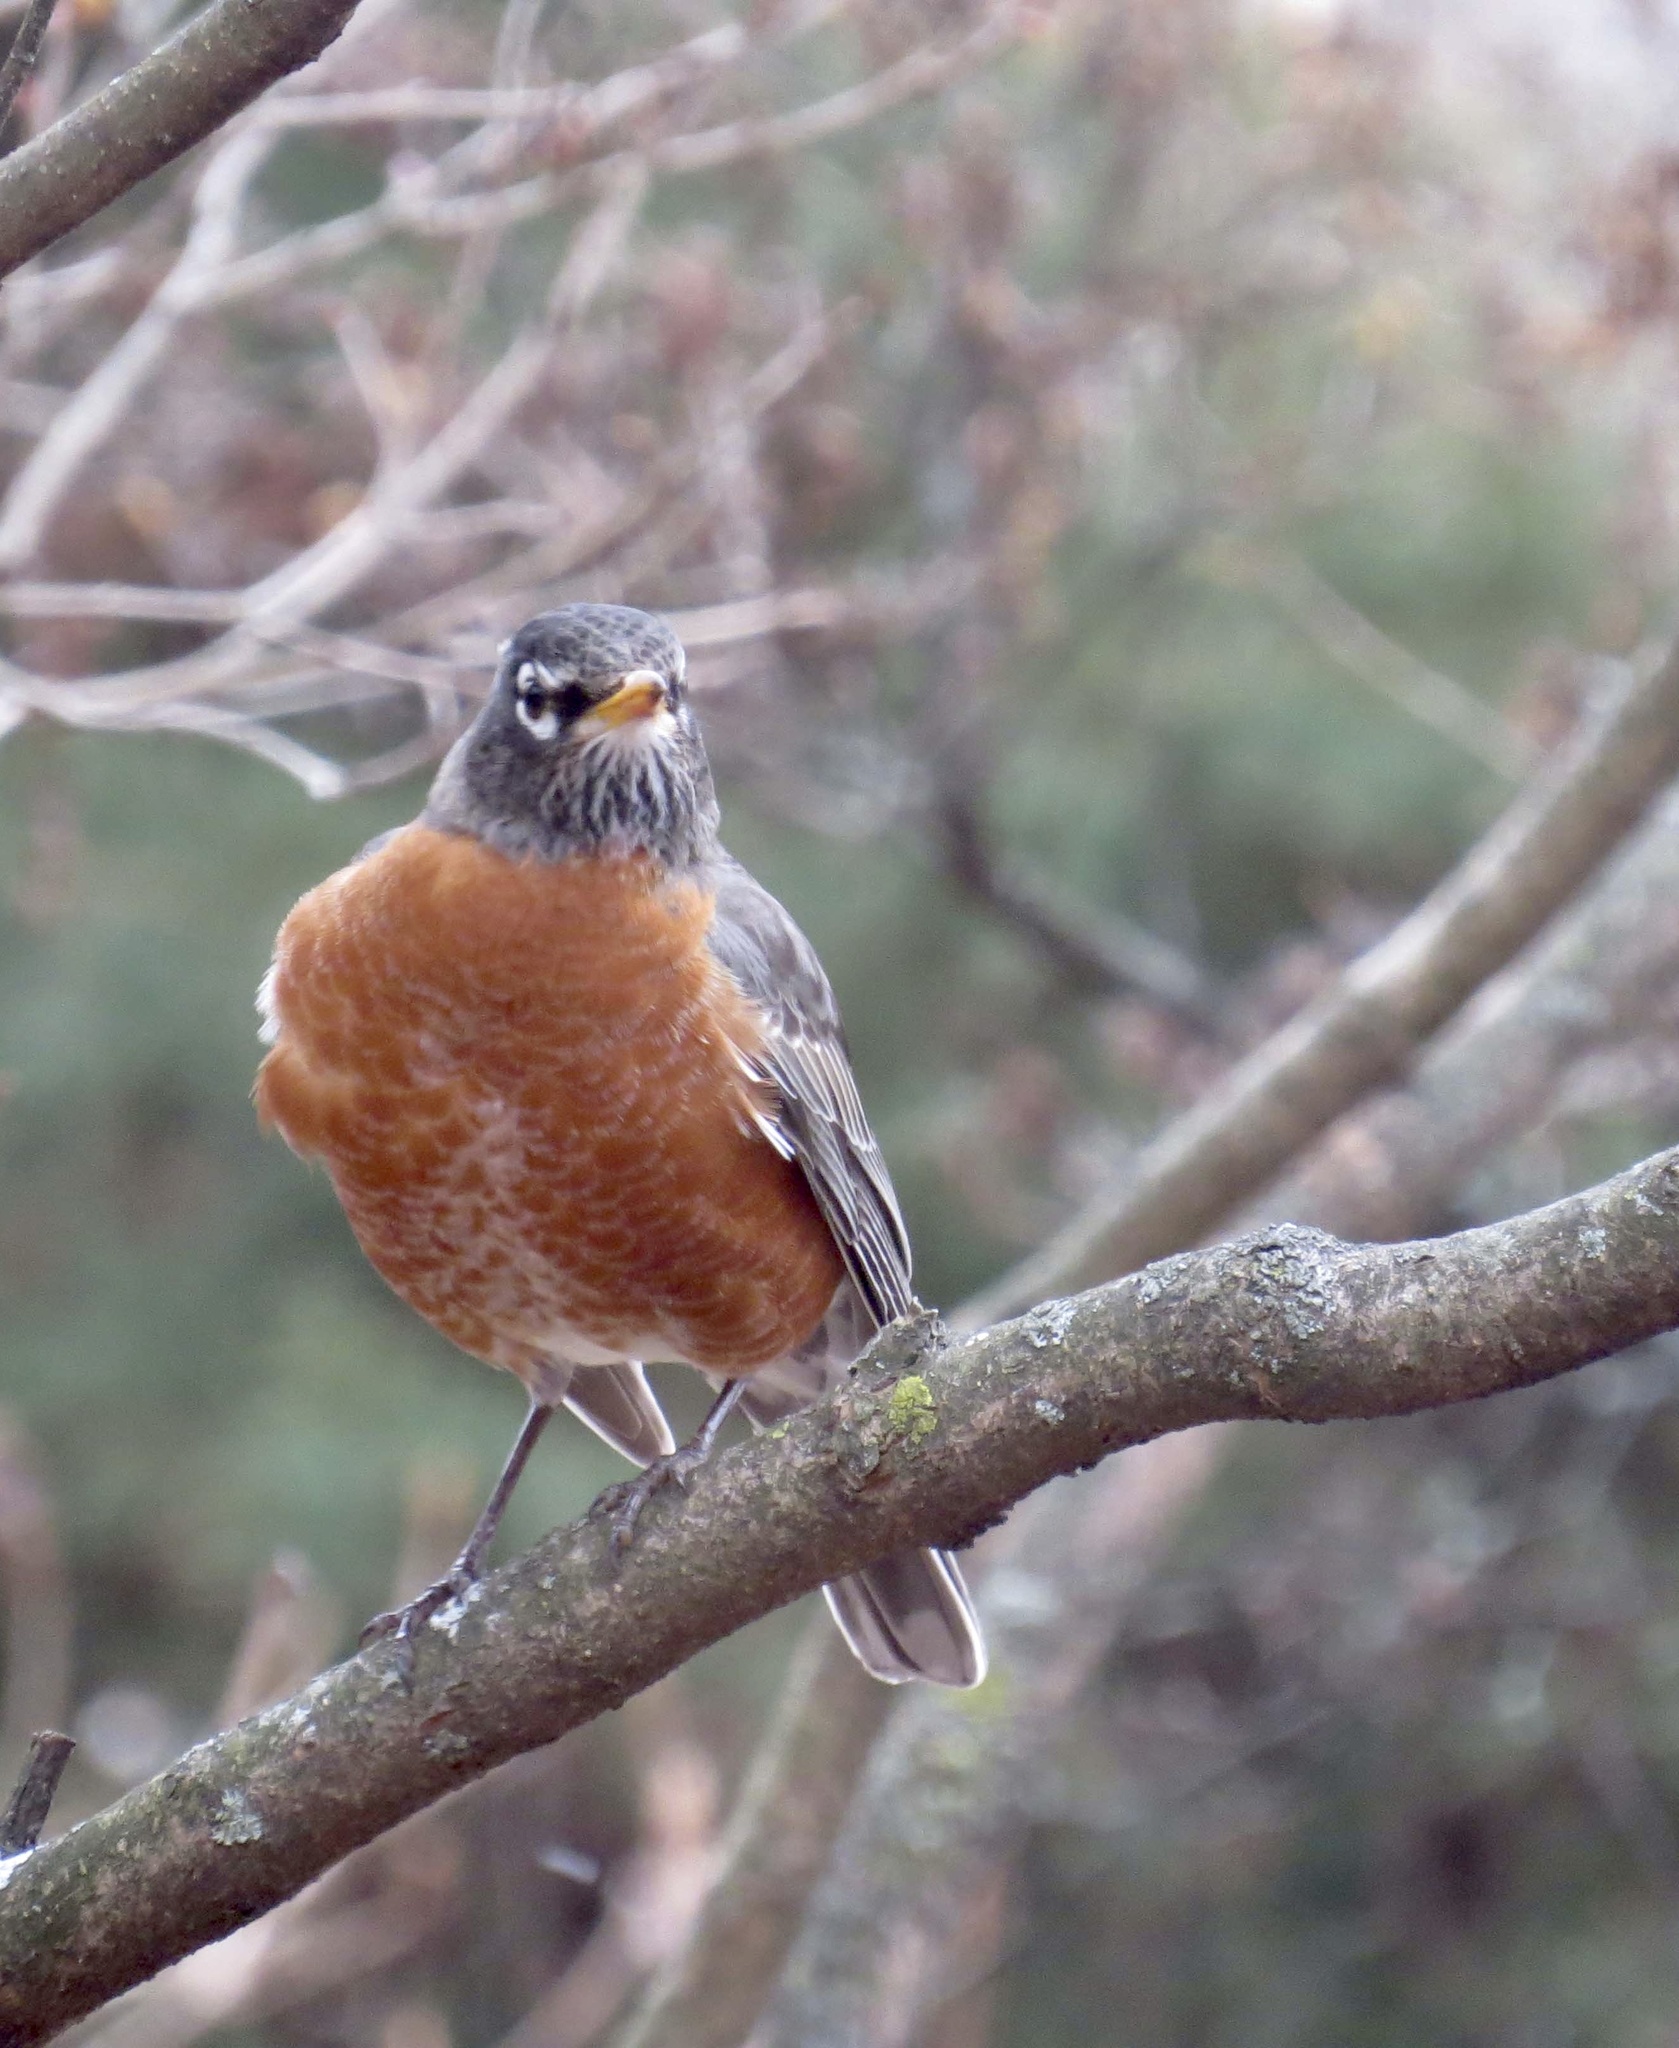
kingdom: Animalia
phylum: Chordata
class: Aves
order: Passeriformes
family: Turdidae
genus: Turdus
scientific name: Turdus migratorius
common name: American robin
